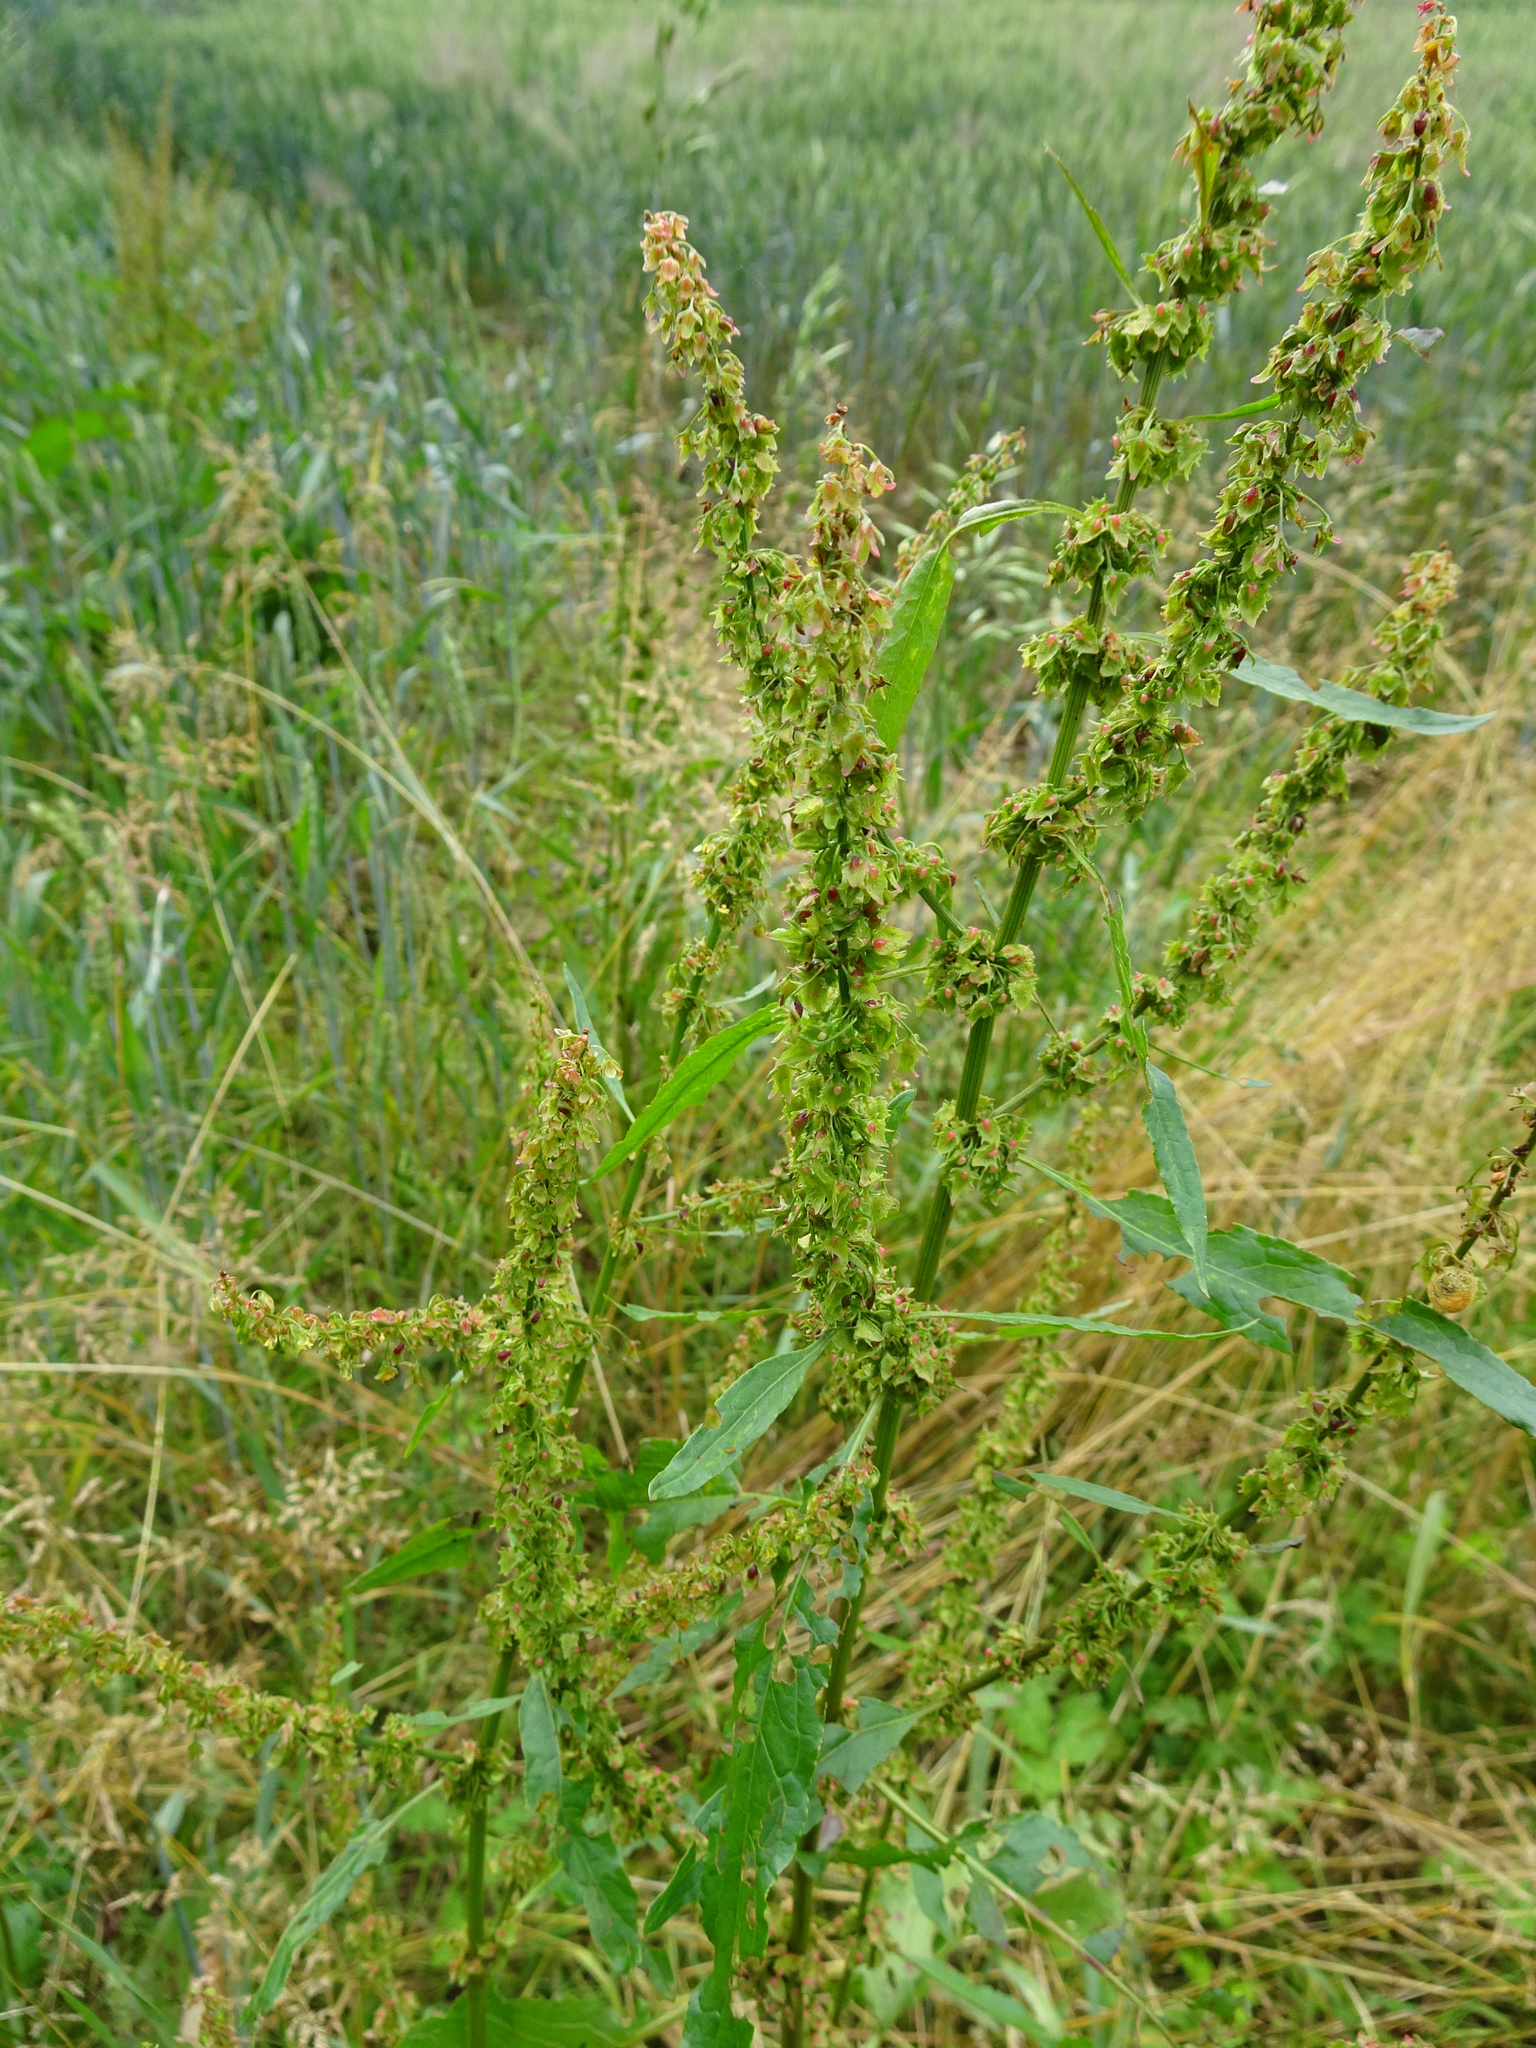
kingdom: Plantae
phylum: Tracheophyta
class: Magnoliopsida
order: Caryophyllales
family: Polygonaceae
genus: Rumex
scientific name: Rumex obtusifolius
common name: Bitter dock
